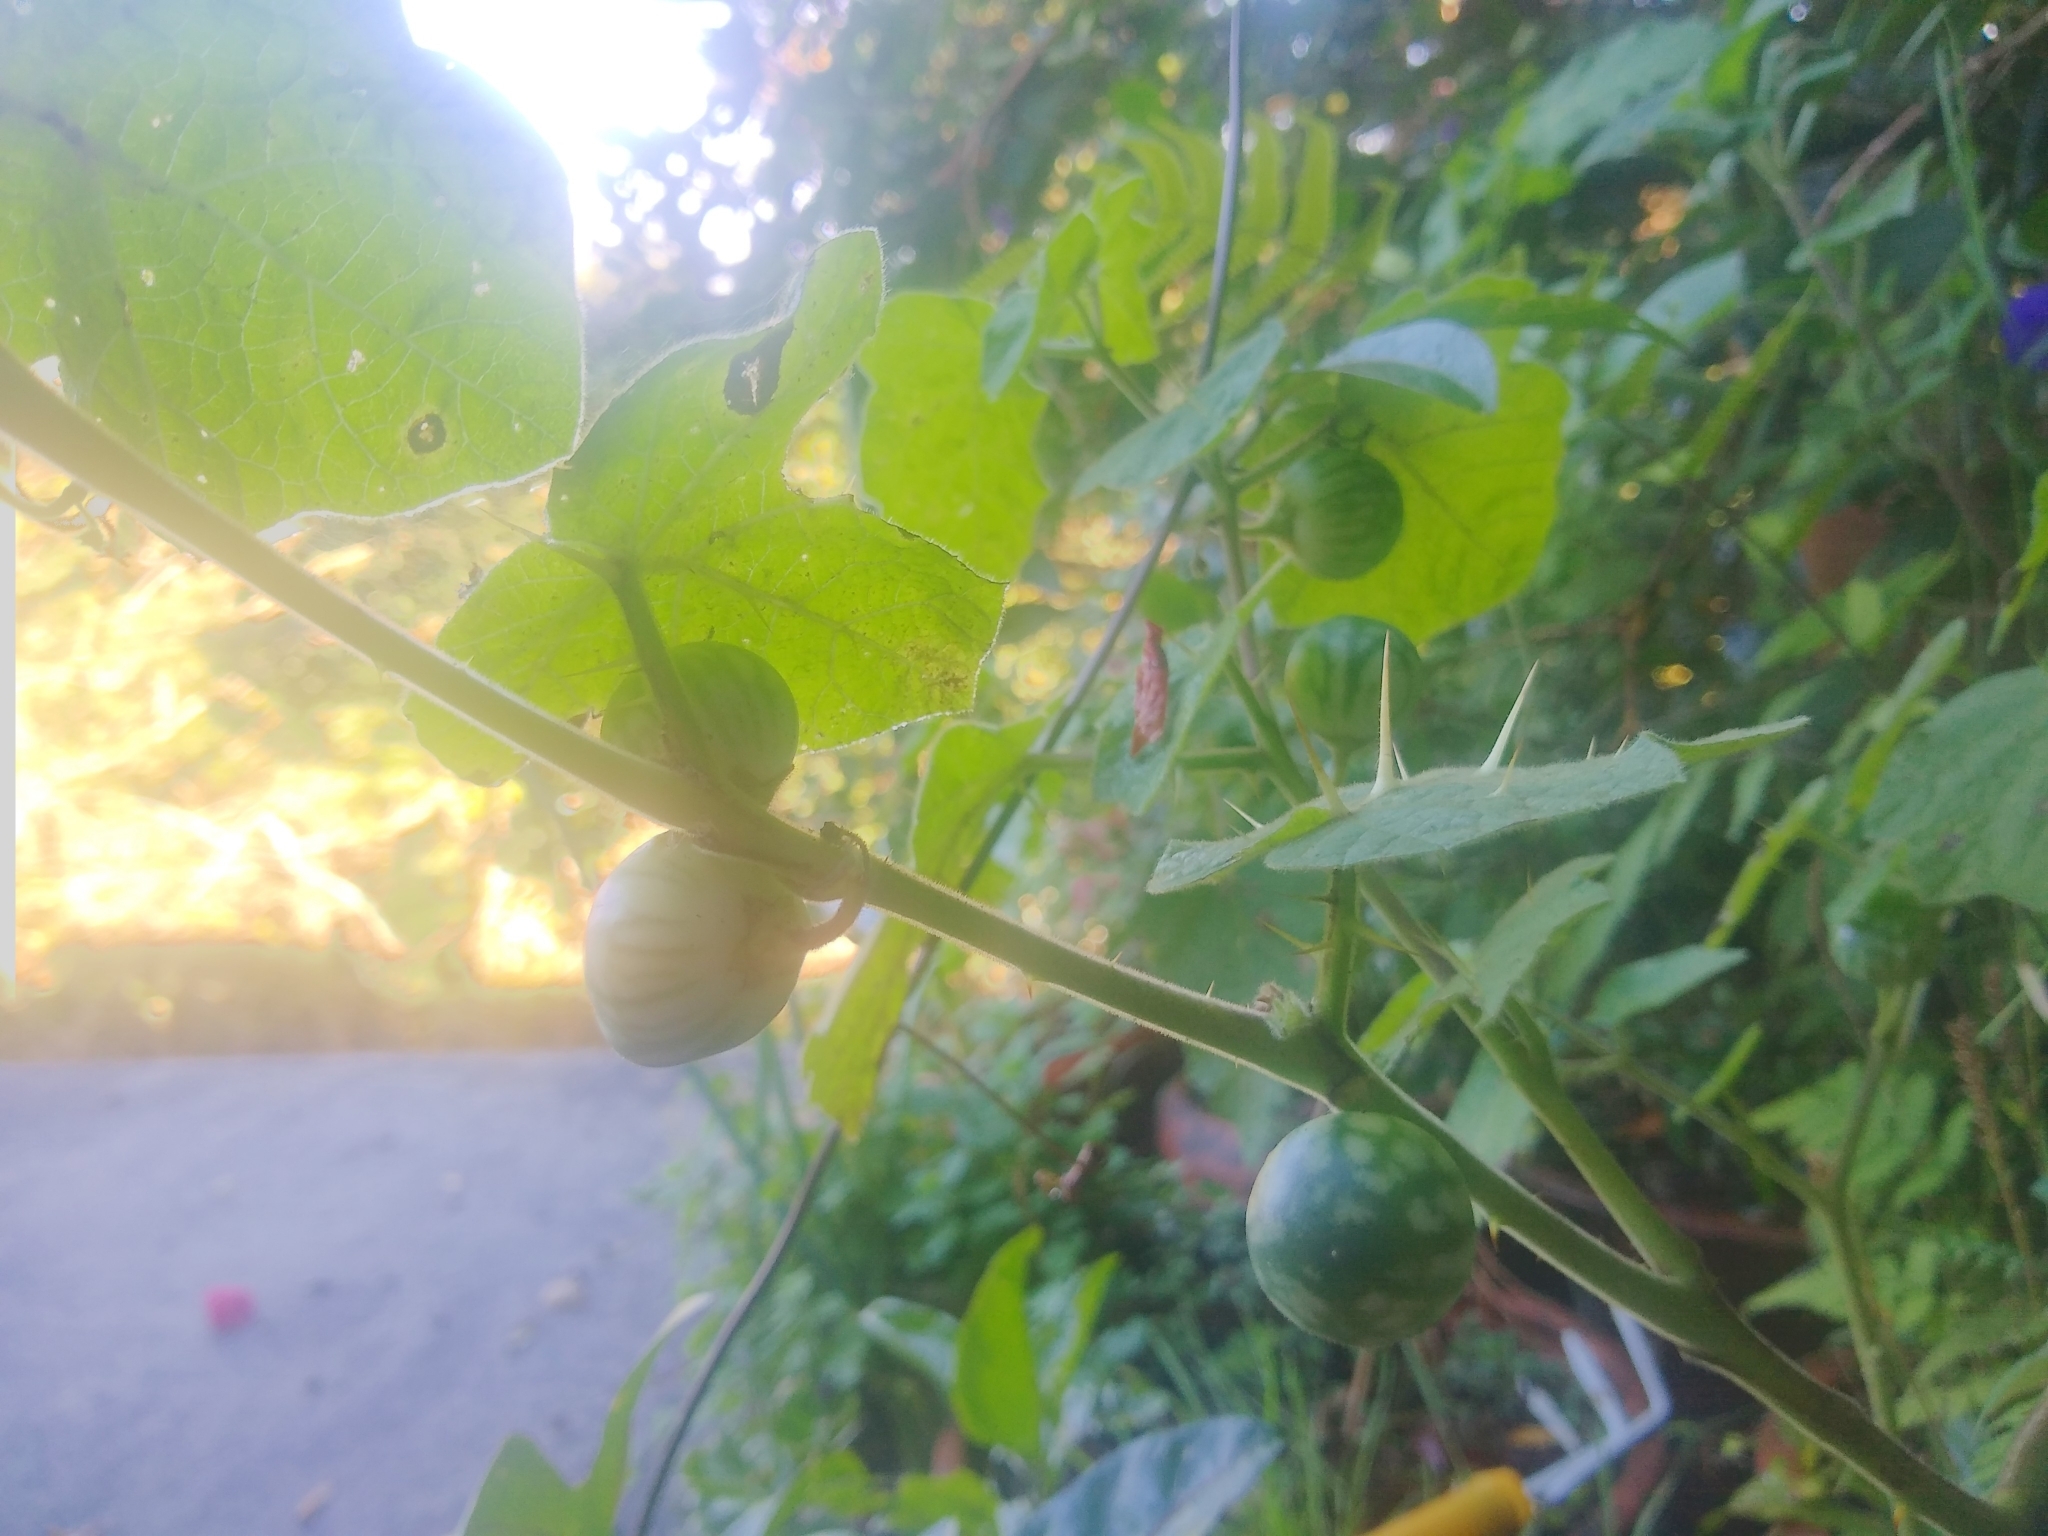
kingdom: Plantae
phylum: Tracheophyta
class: Magnoliopsida
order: Solanales
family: Solanaceae
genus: Solanum
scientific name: Solanum virginianum
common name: Surattense nightshade
